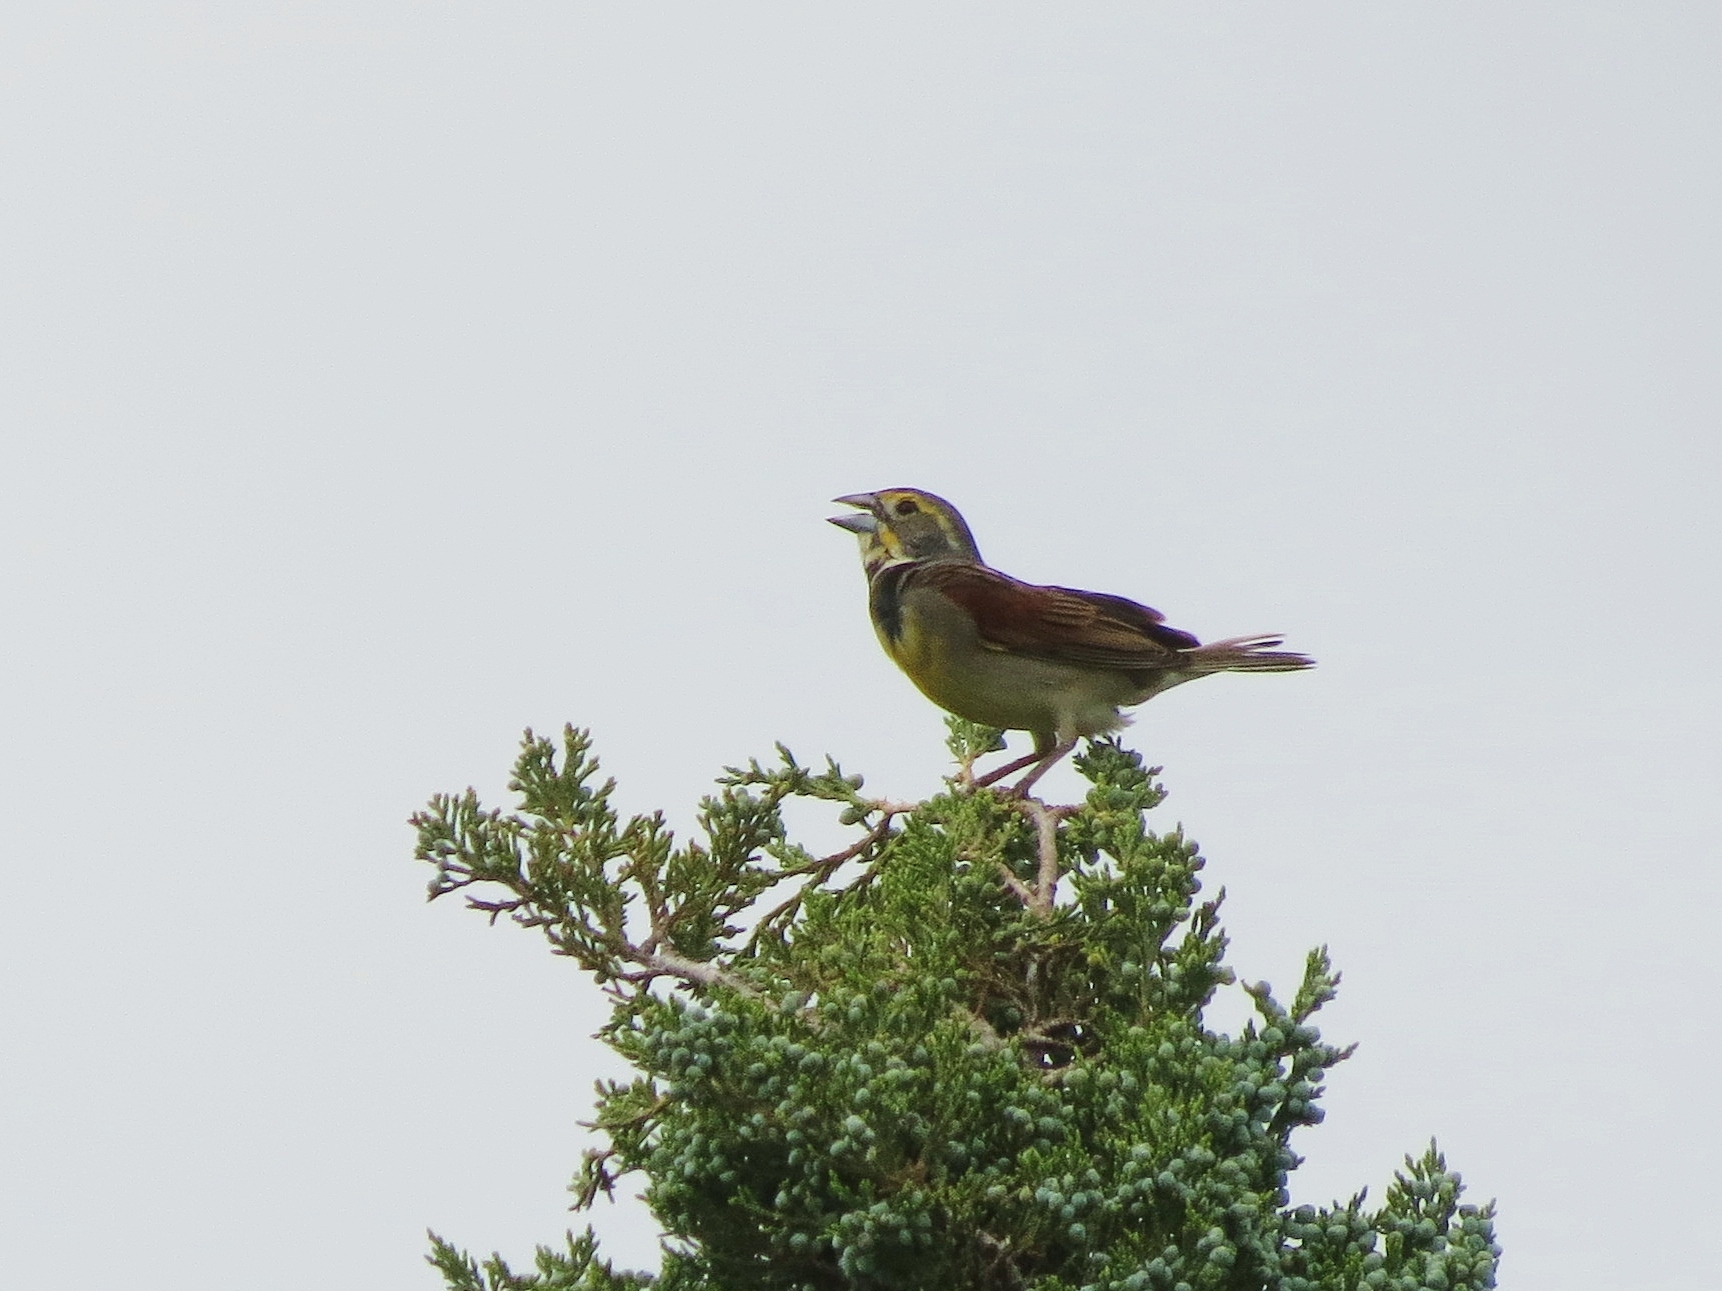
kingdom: Animalia
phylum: Chordata
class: Aves
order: Passeriformes
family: Cardinalidae
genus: Spiza
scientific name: Spiza americana
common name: Dickcissel
